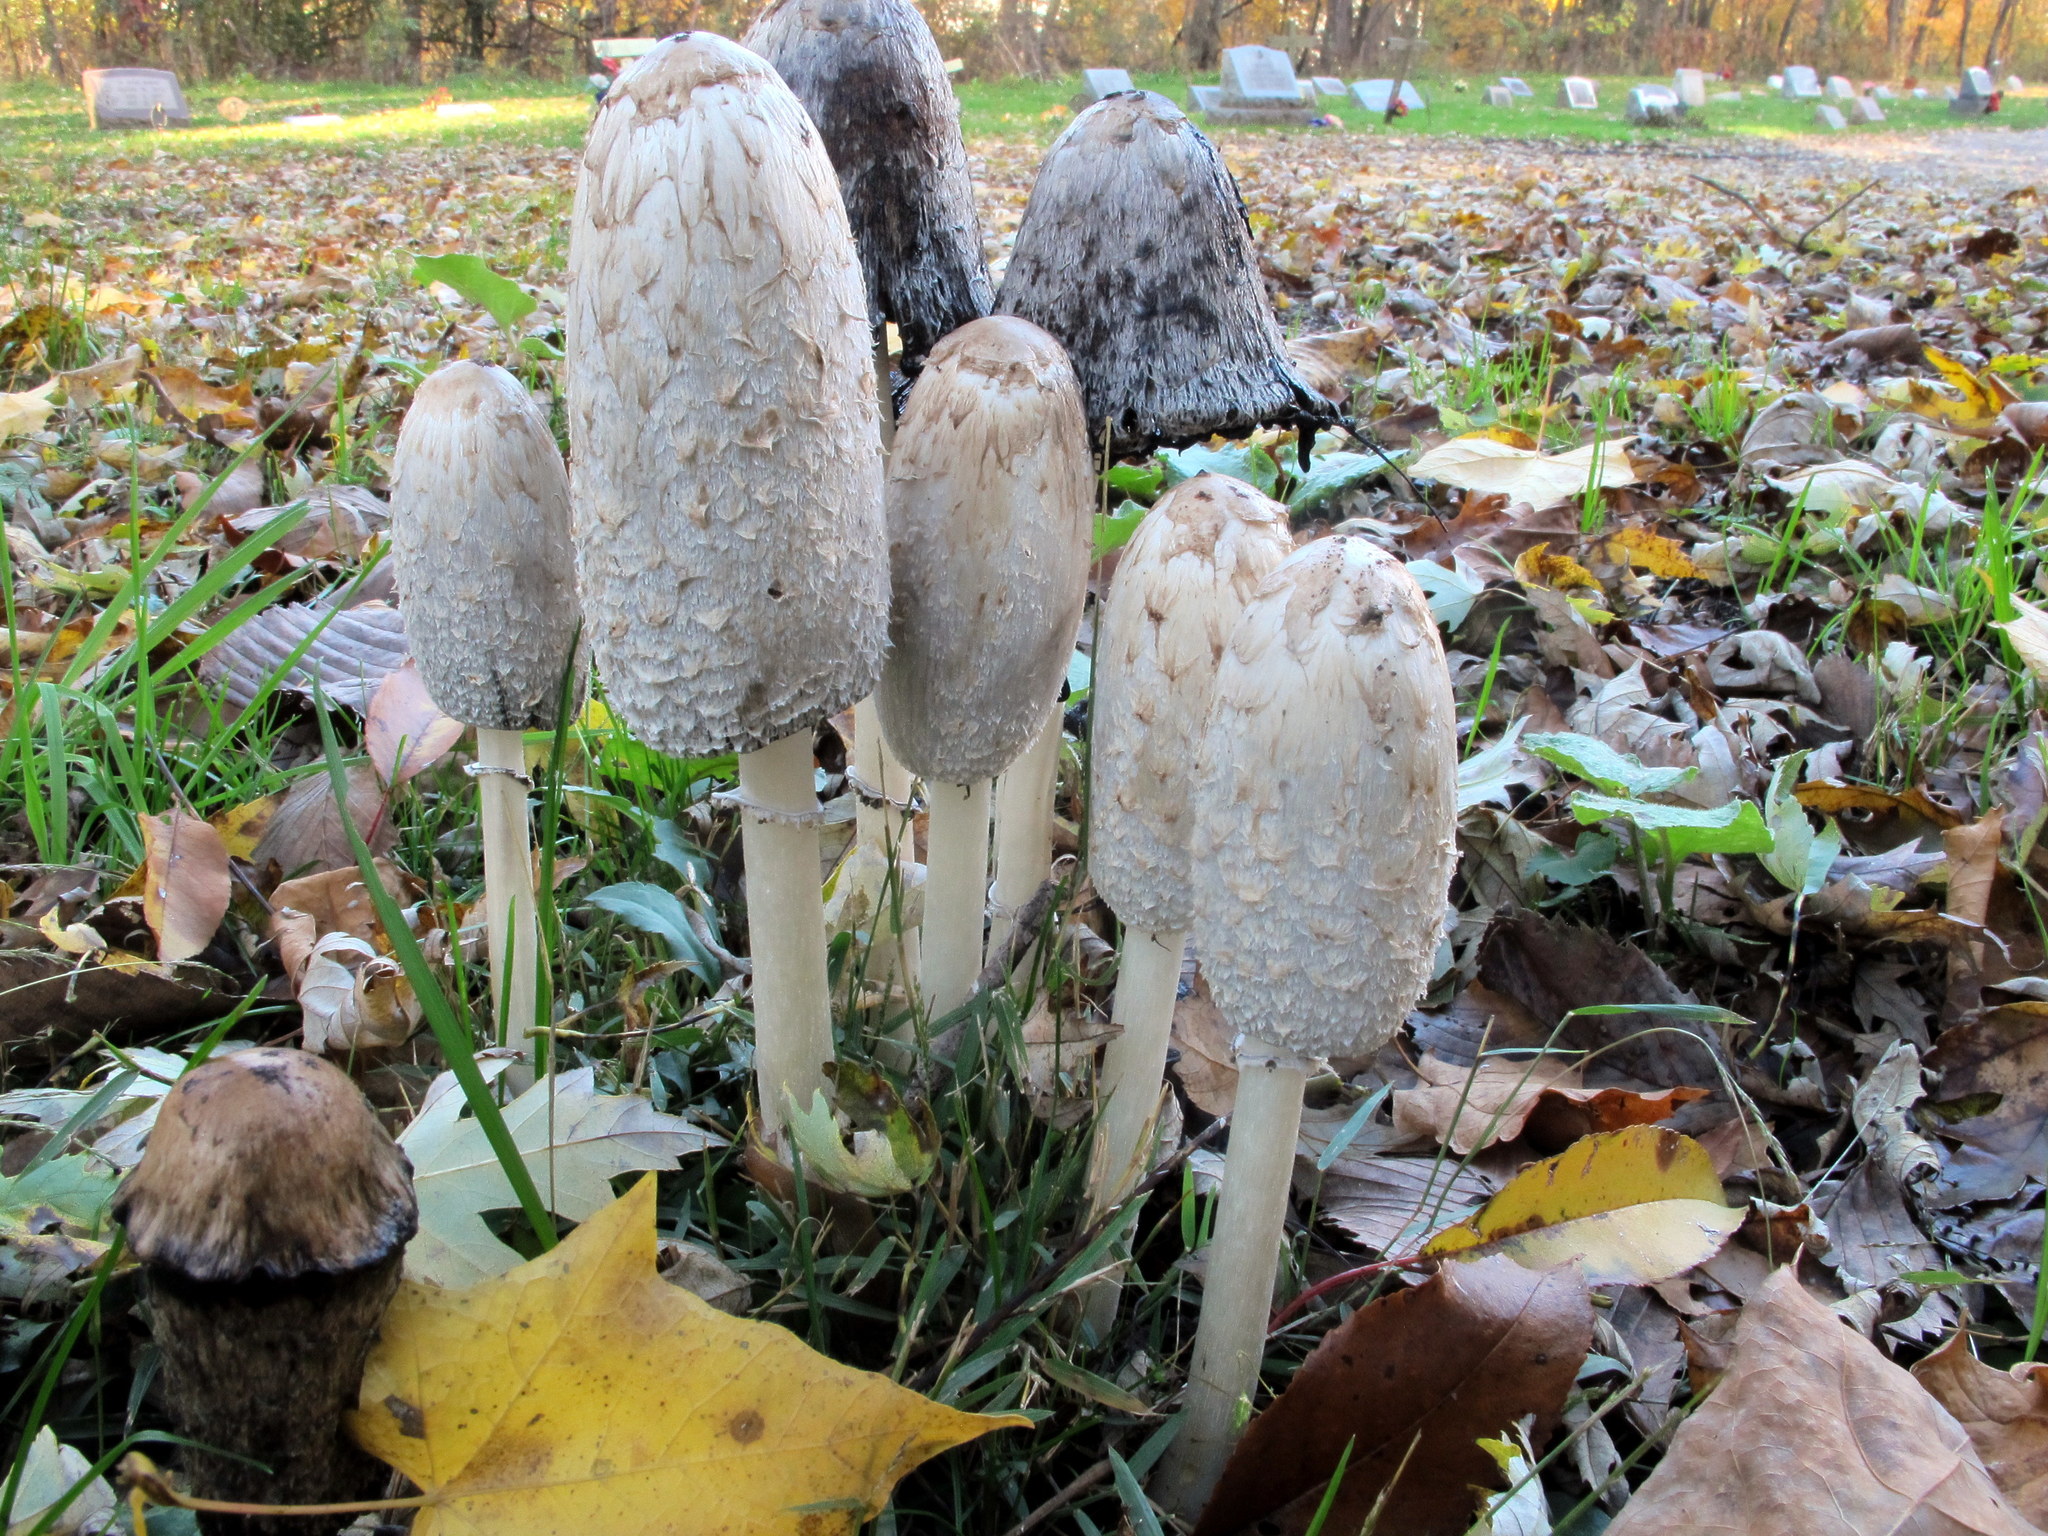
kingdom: Fungi
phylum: Basidiomycota
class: Agaricomycetes
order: Agaricales
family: Agaricaceae
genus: Coprinus
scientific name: Coprinus comatus
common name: Lawyer's wig
